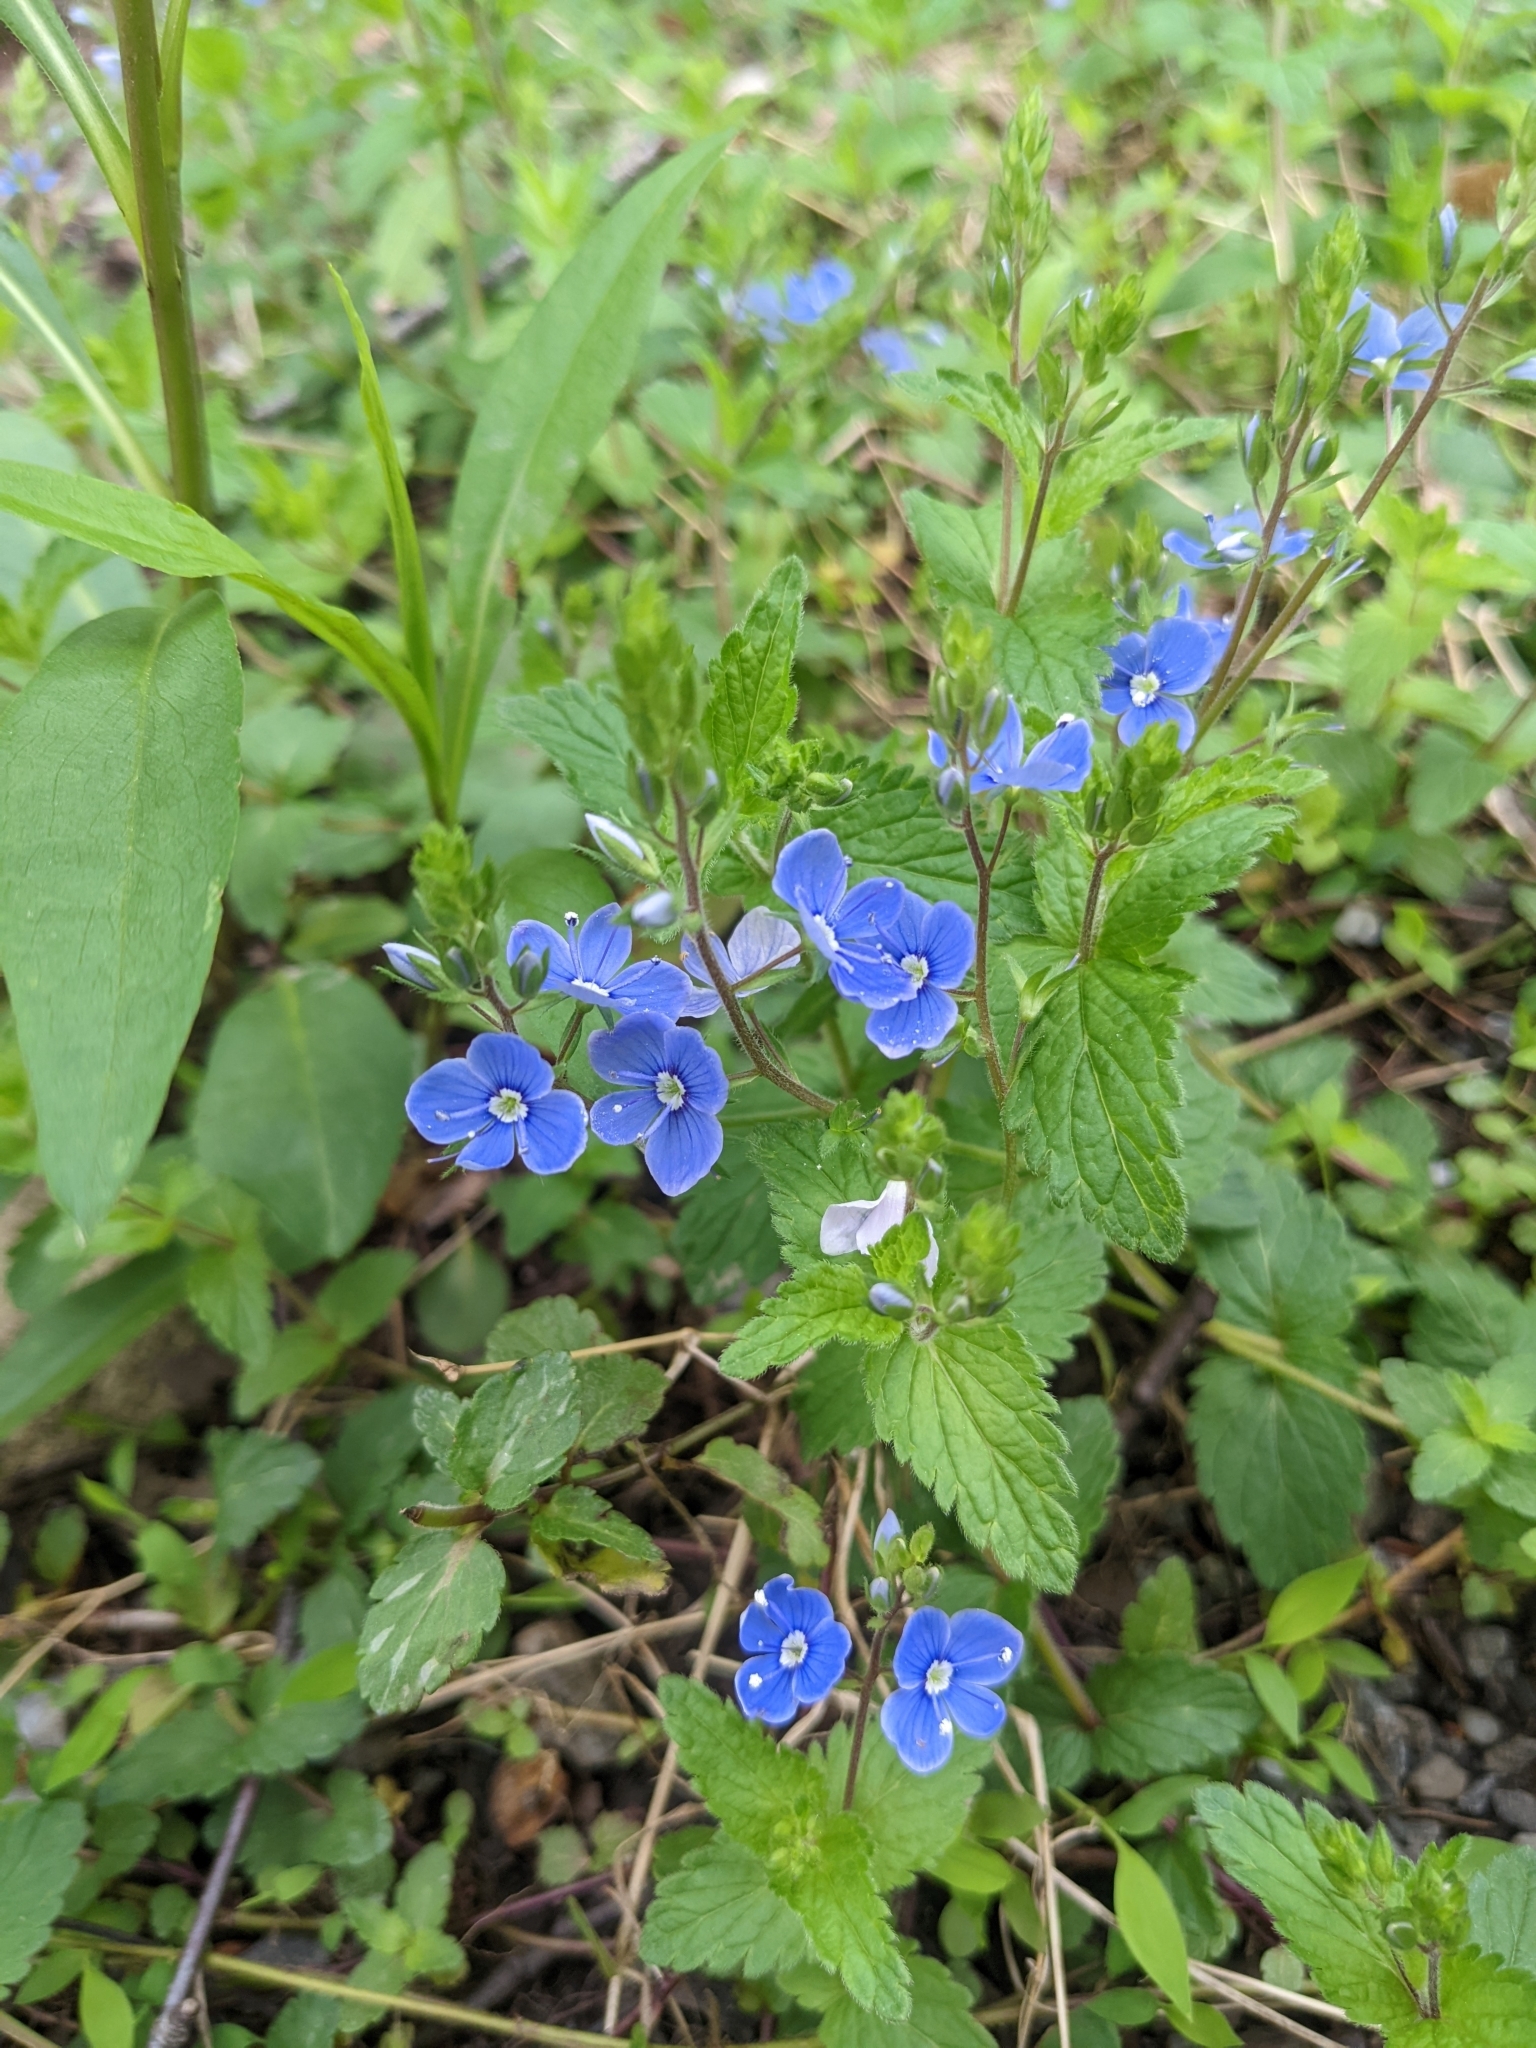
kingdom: Plantae
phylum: Tracheophyta
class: Magnoliopsida
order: Lamiales
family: Plantaginaceae
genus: Veronica
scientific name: Veronica chamaedrys
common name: Germander speedwell
